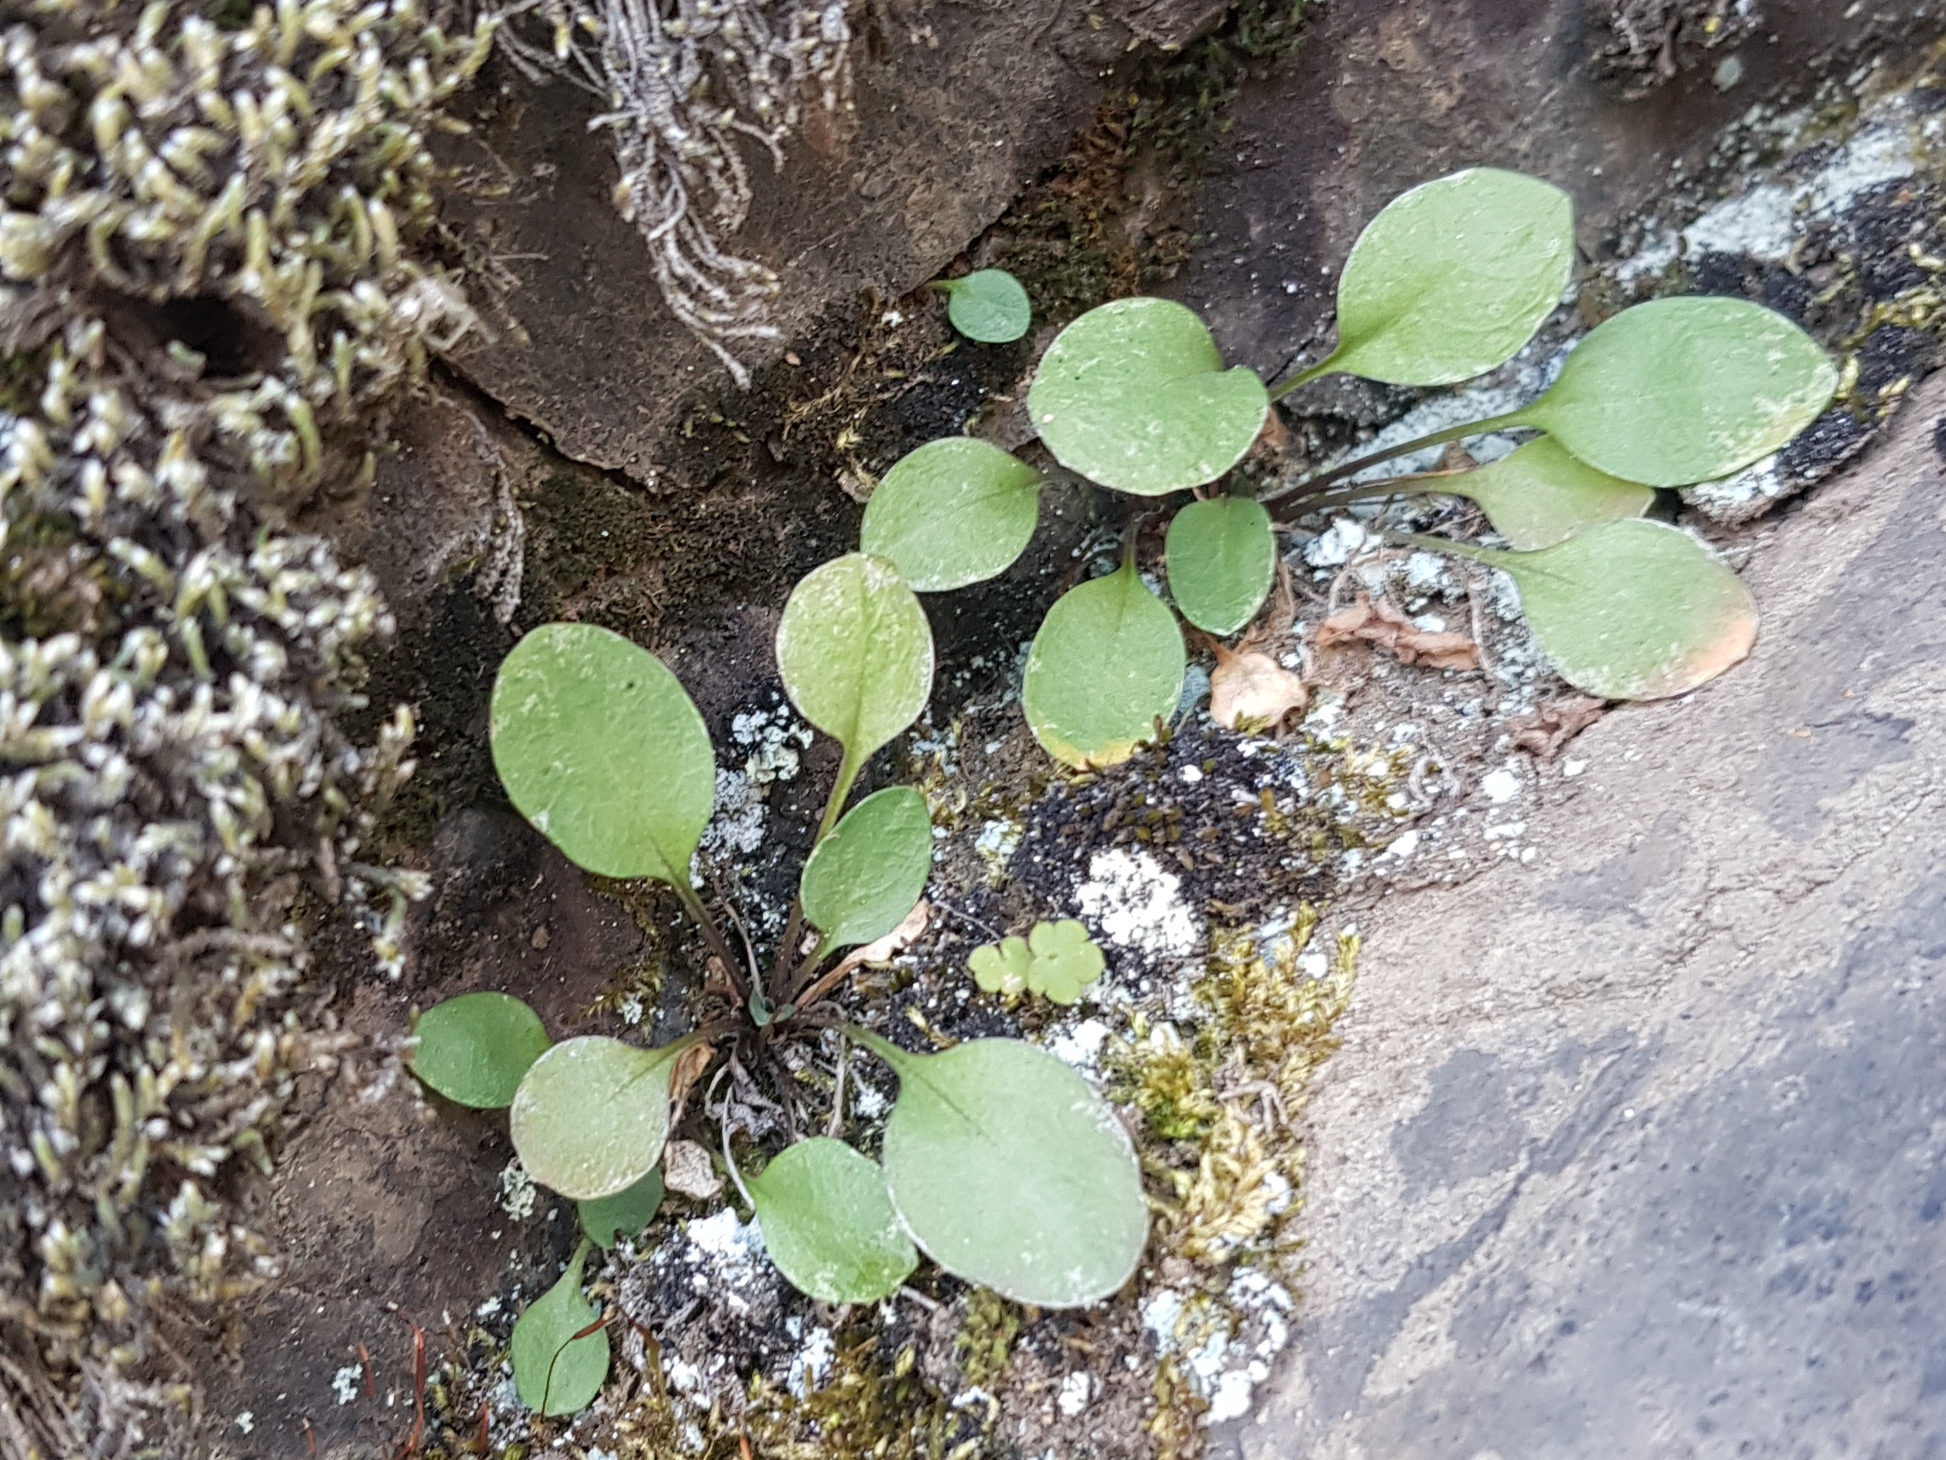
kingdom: Plantae
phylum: Tracheophyta
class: Magnoliopsida
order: Ericales
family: Primulaceae
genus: Primula
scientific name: Primula nutans
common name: Siberian primrose
